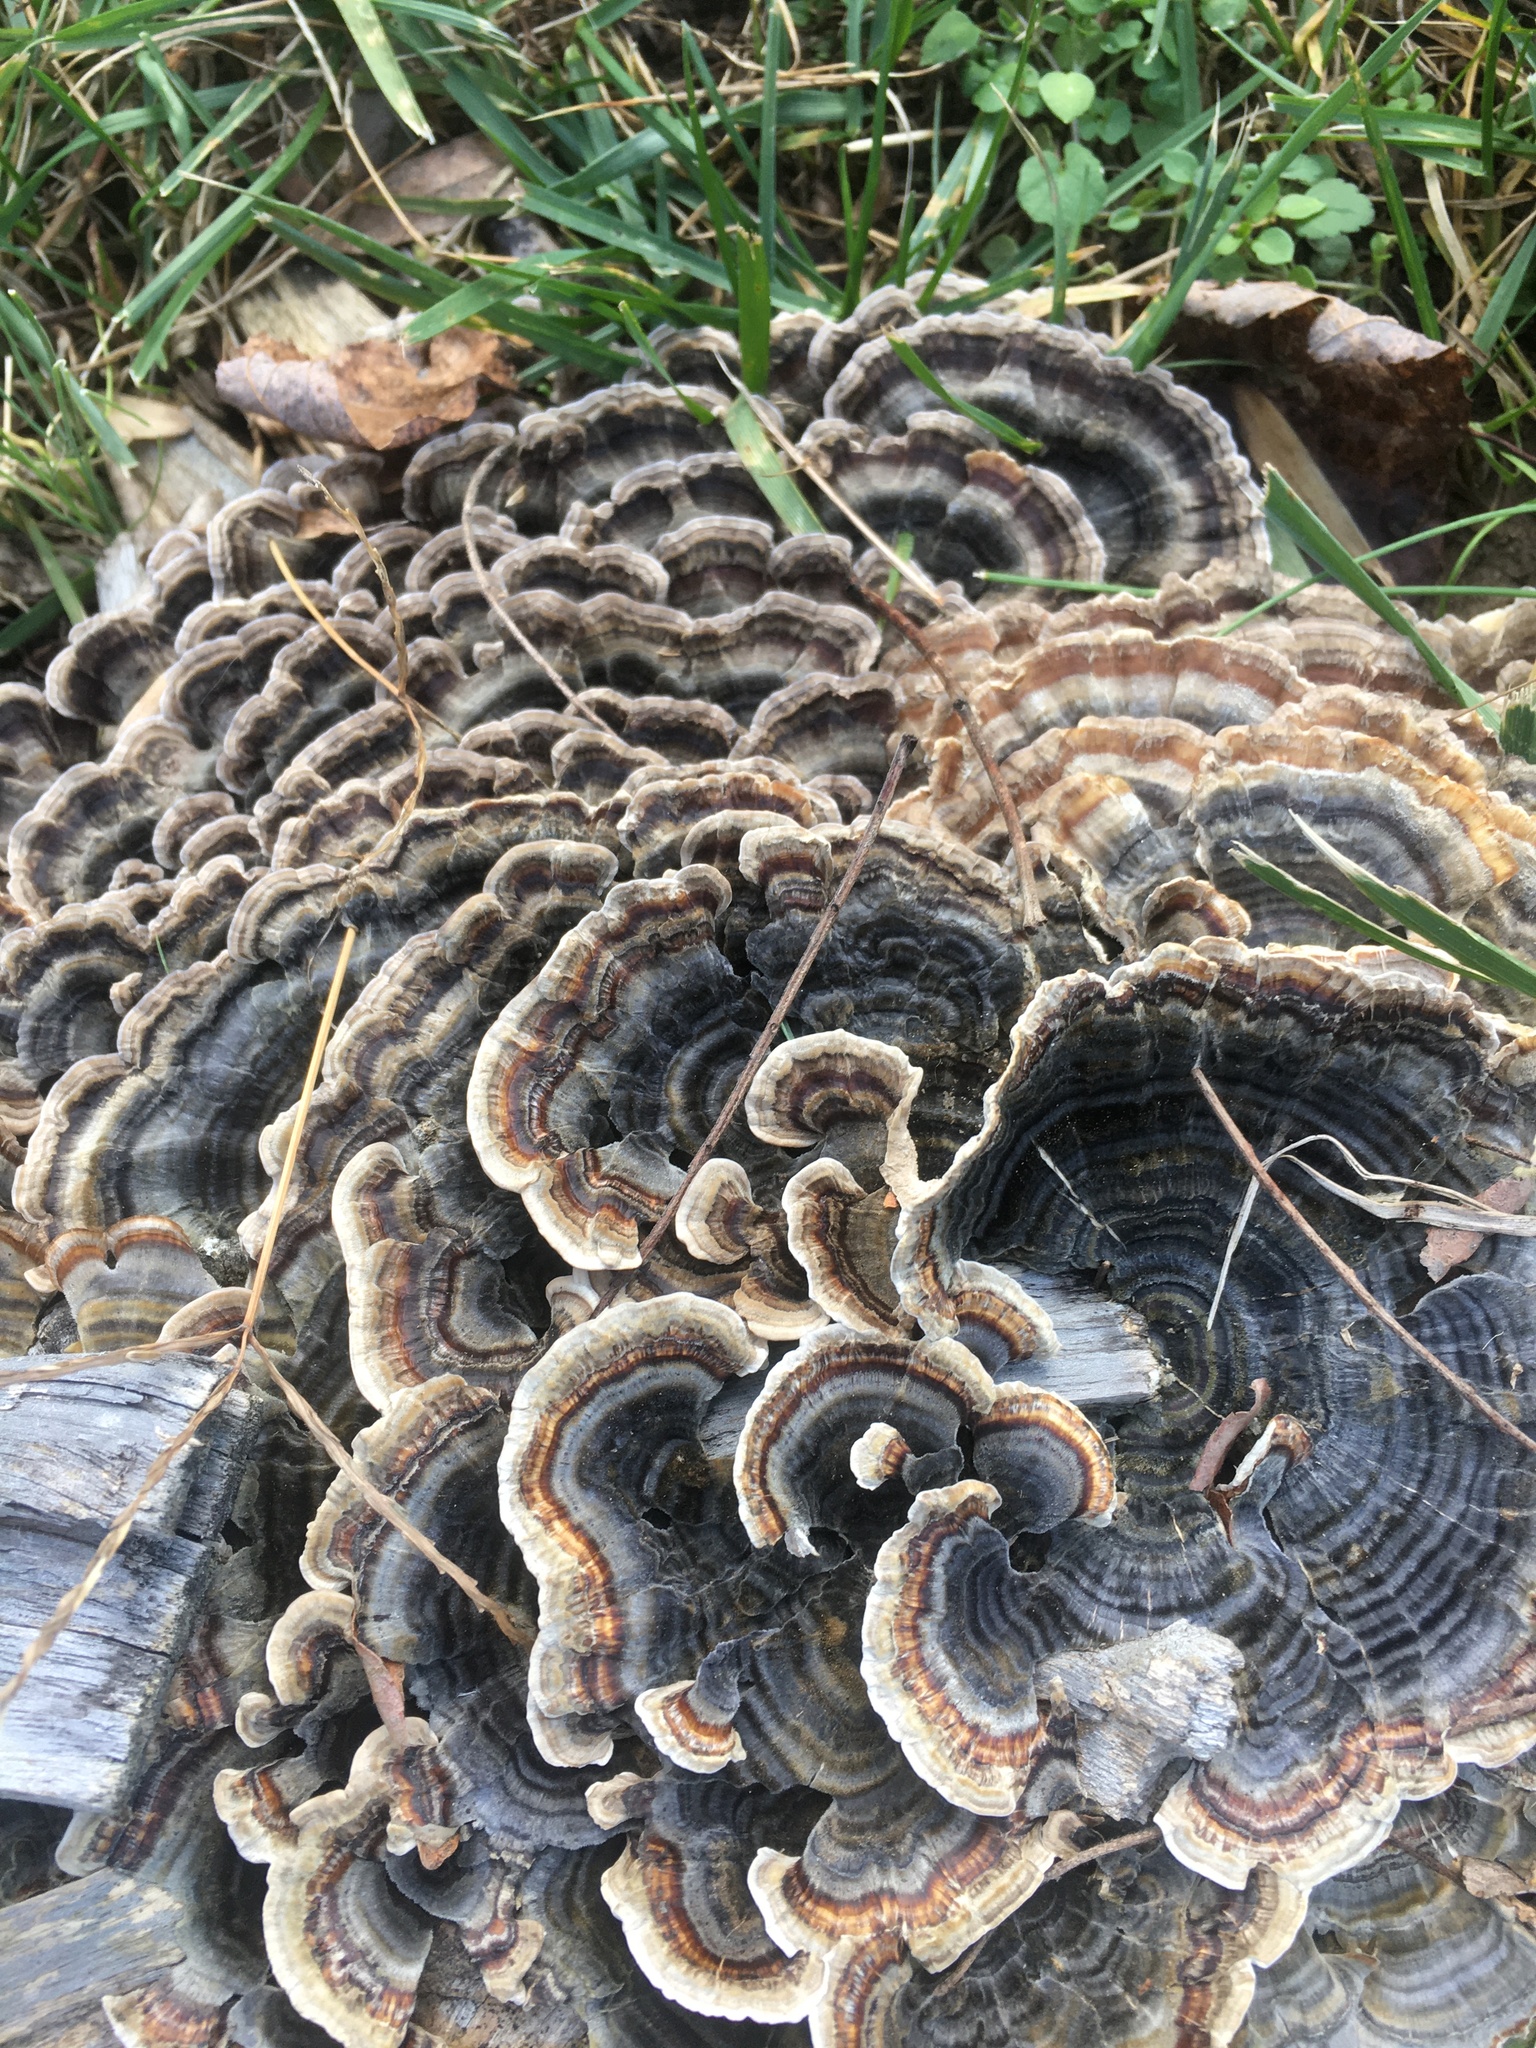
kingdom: Fungi
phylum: Basidiomycota
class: Agaricomycetes
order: Polyporales
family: Polyporaceae
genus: Trametes
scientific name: Trametes versicolor
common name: Turkeytail
